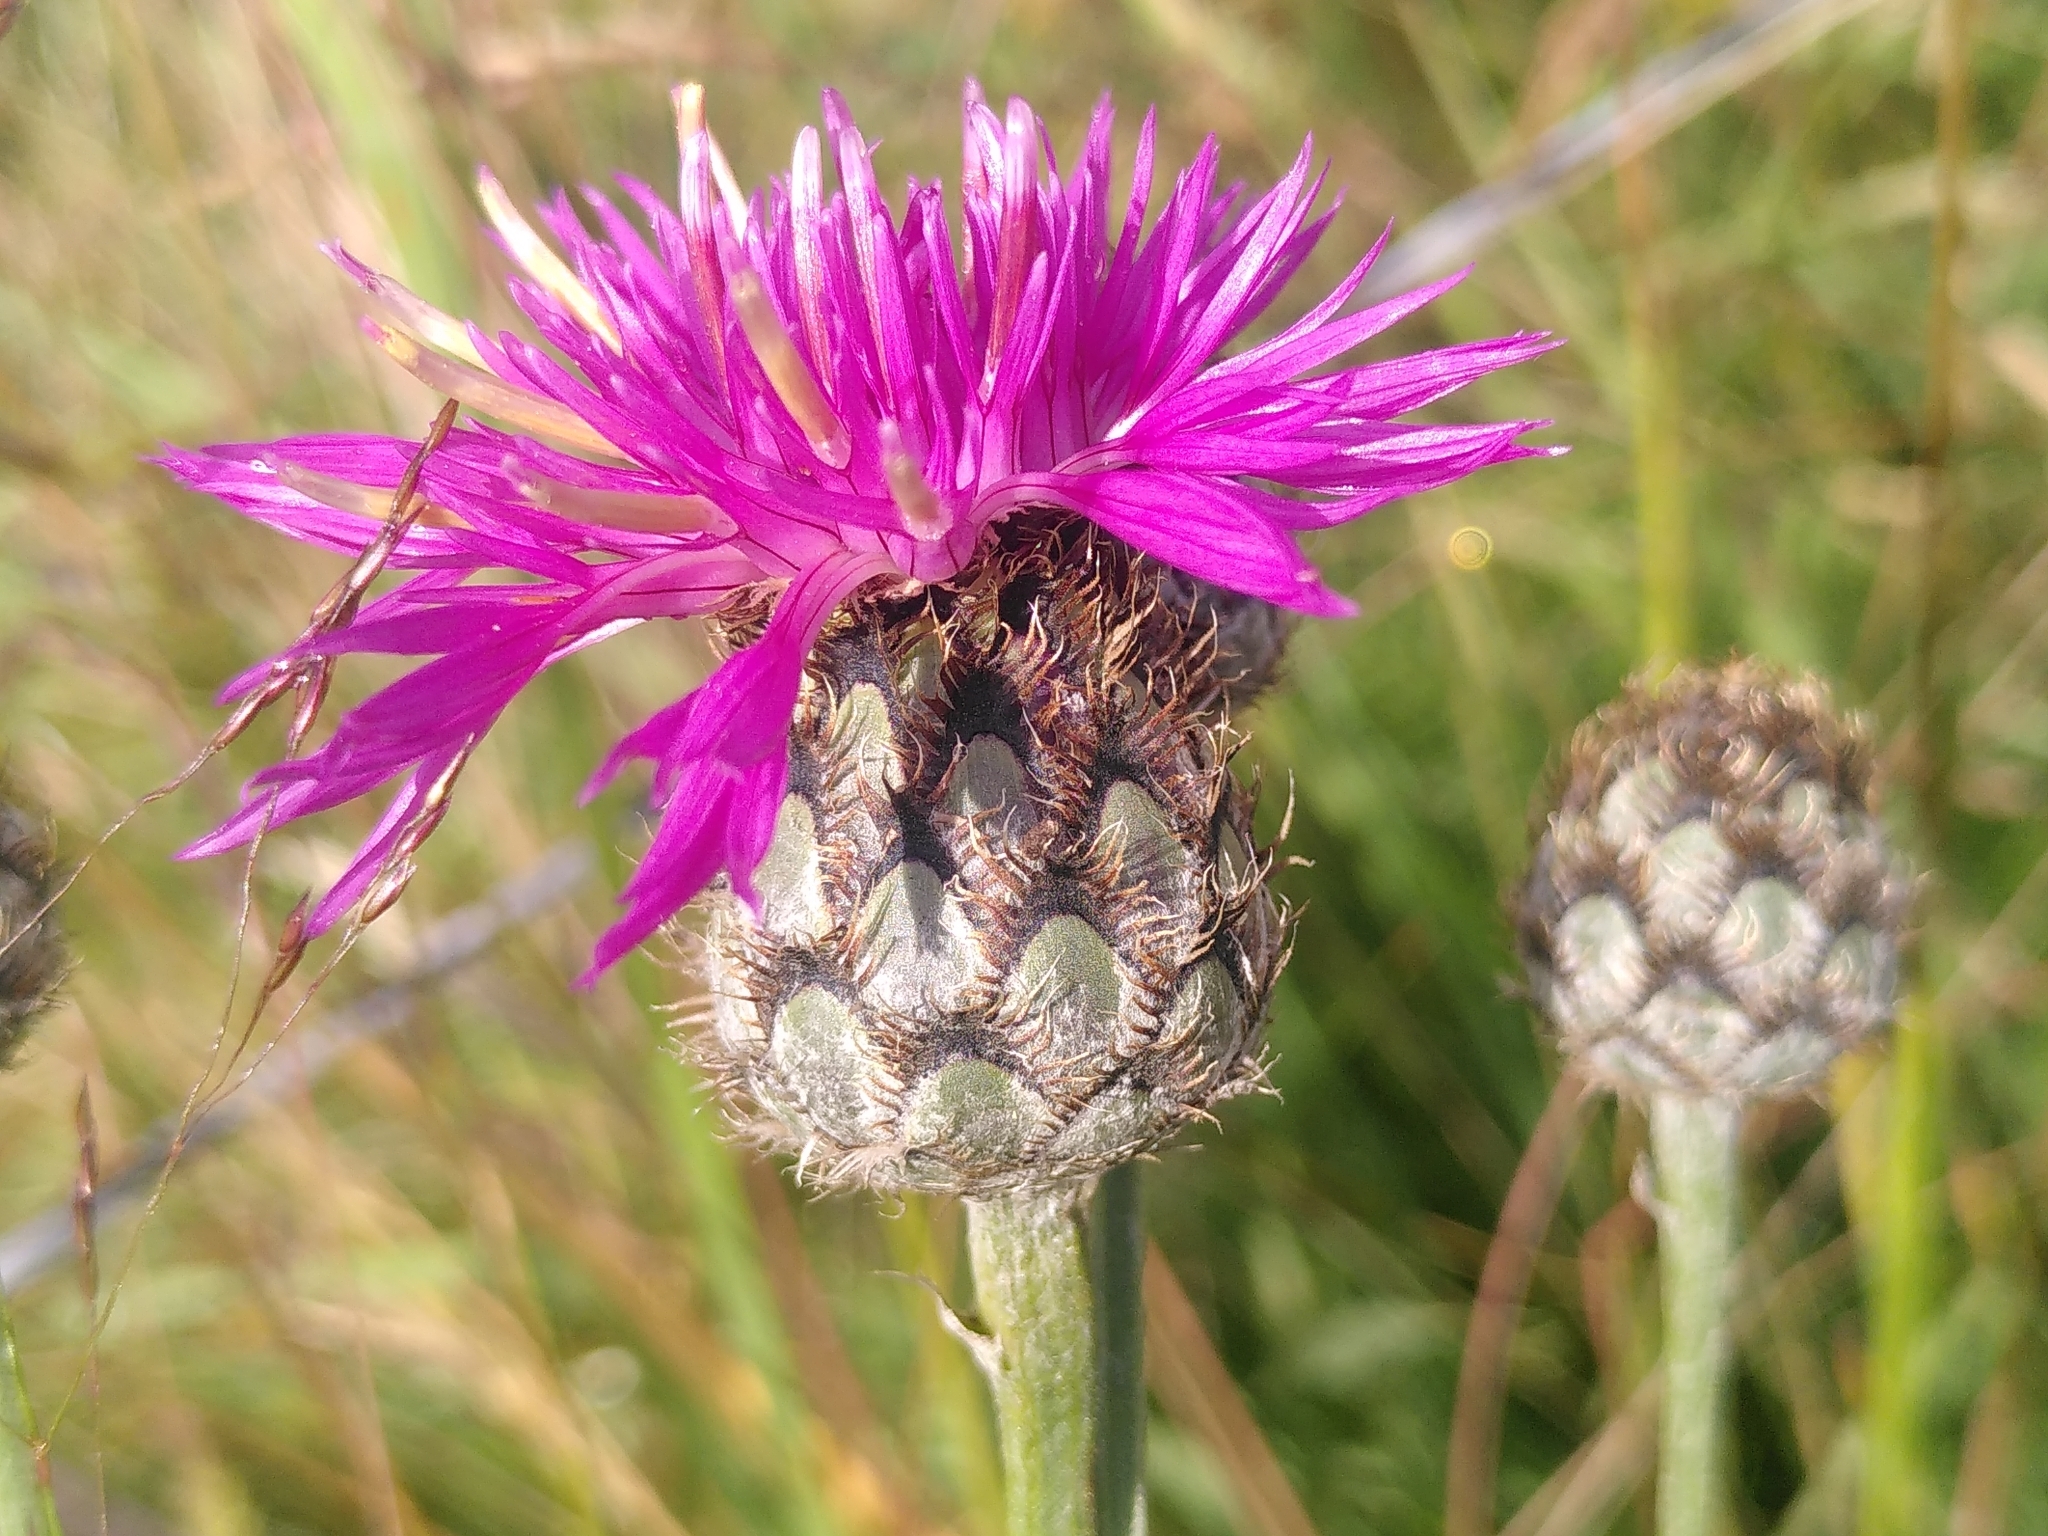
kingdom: Plantae
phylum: Tracheophyta
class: Magnoliopsida
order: Asterales
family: Asteraceae
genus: Centaurea
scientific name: Centaurea scabiosa
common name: Greater knapweed
